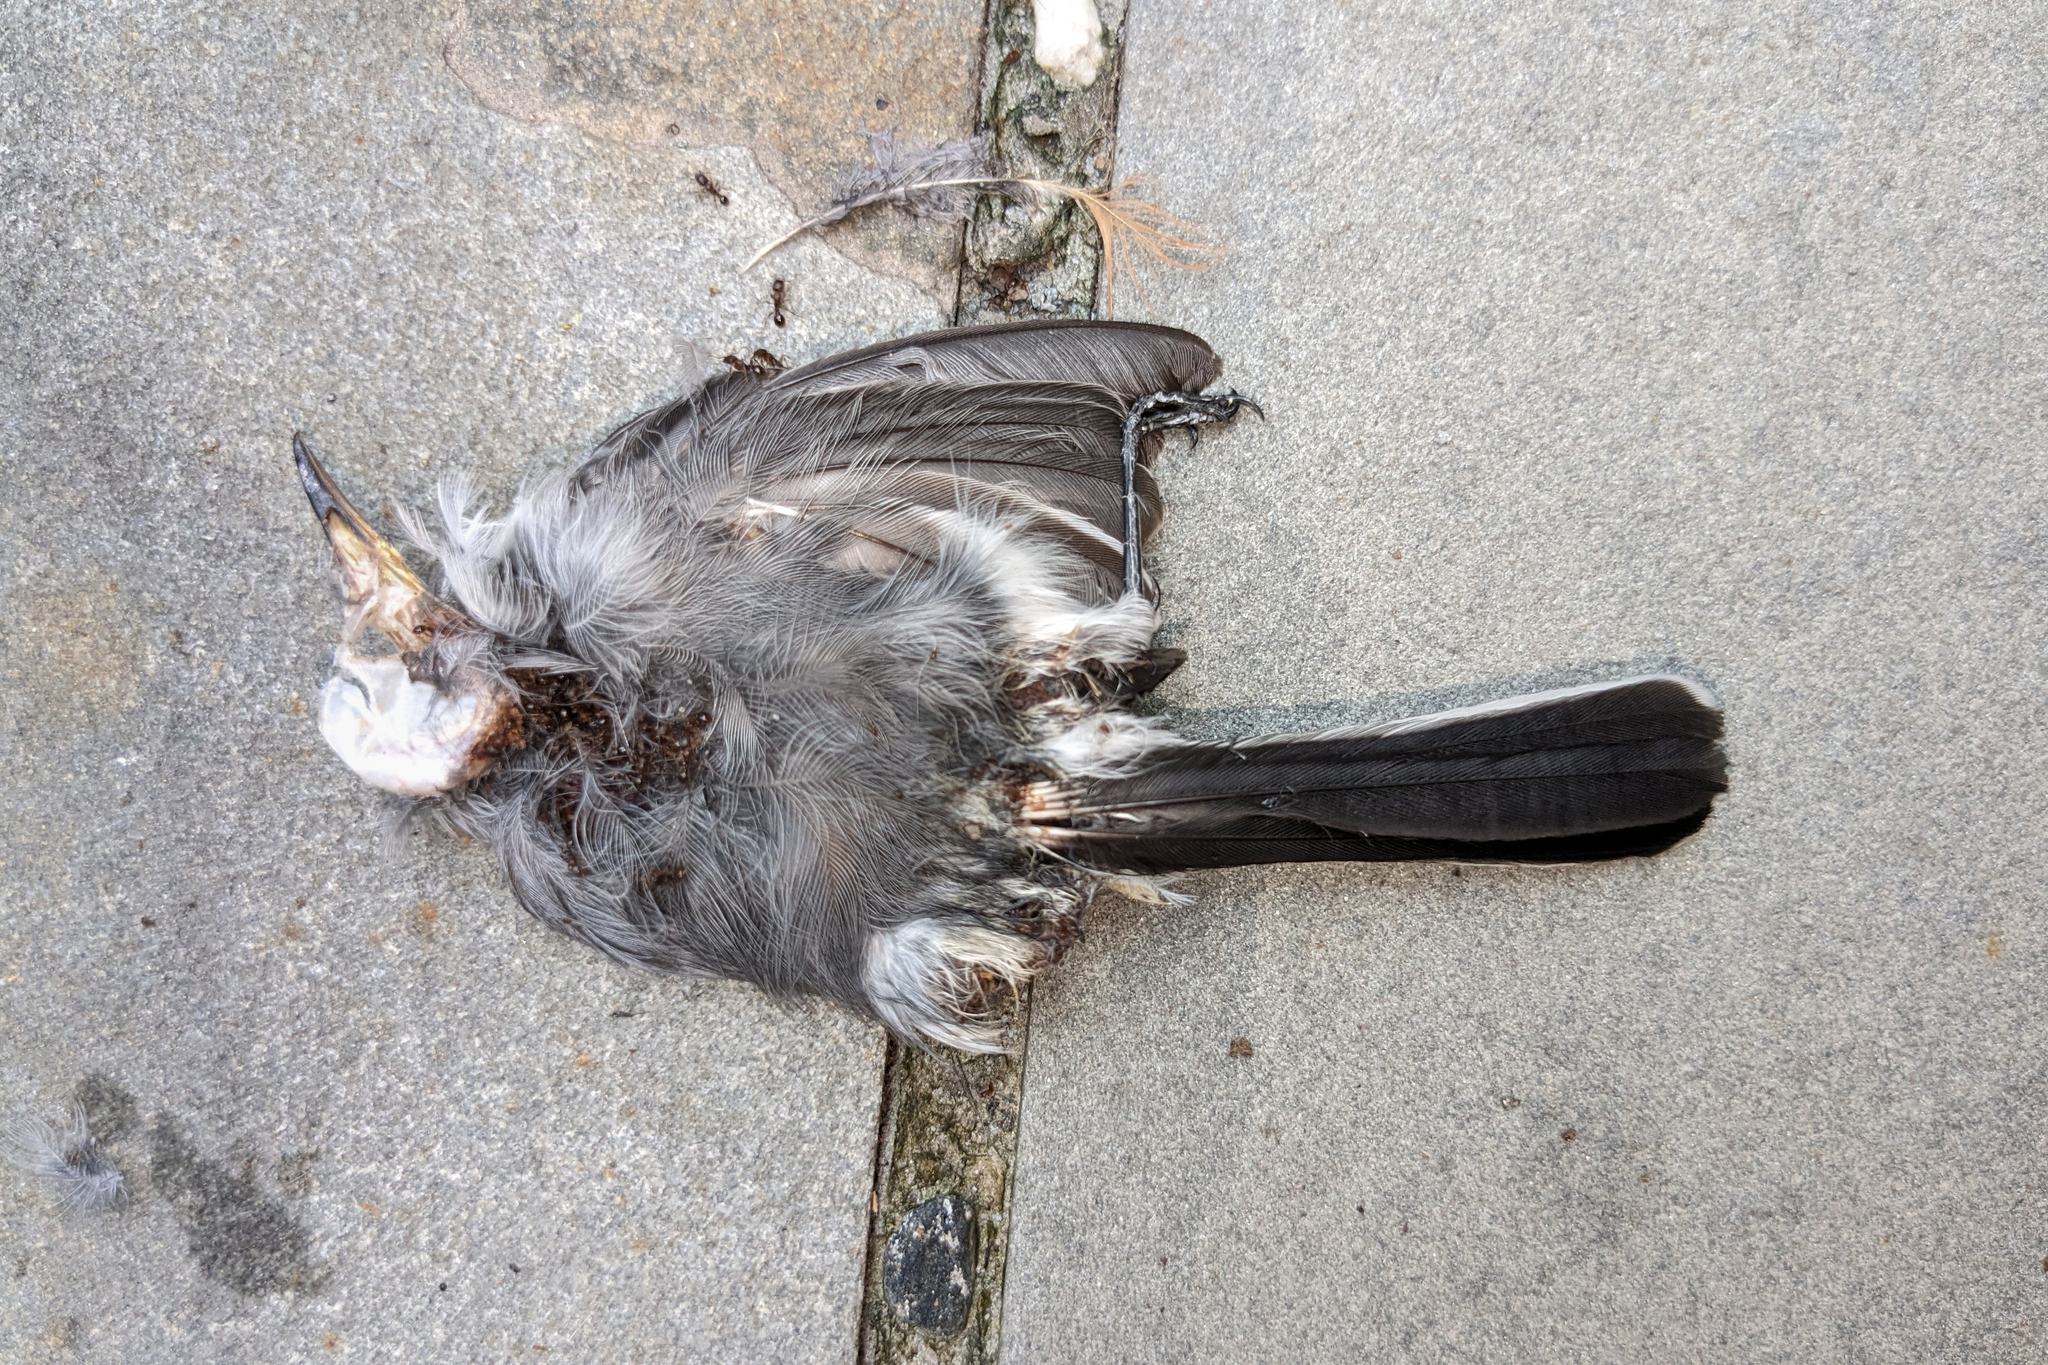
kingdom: Animalia
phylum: Chordata
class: Aves
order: Passeriformes
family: Polioptilidae
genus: Polioptila
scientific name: Polioptila caerulea
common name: Blue-gray gnatcatcher
